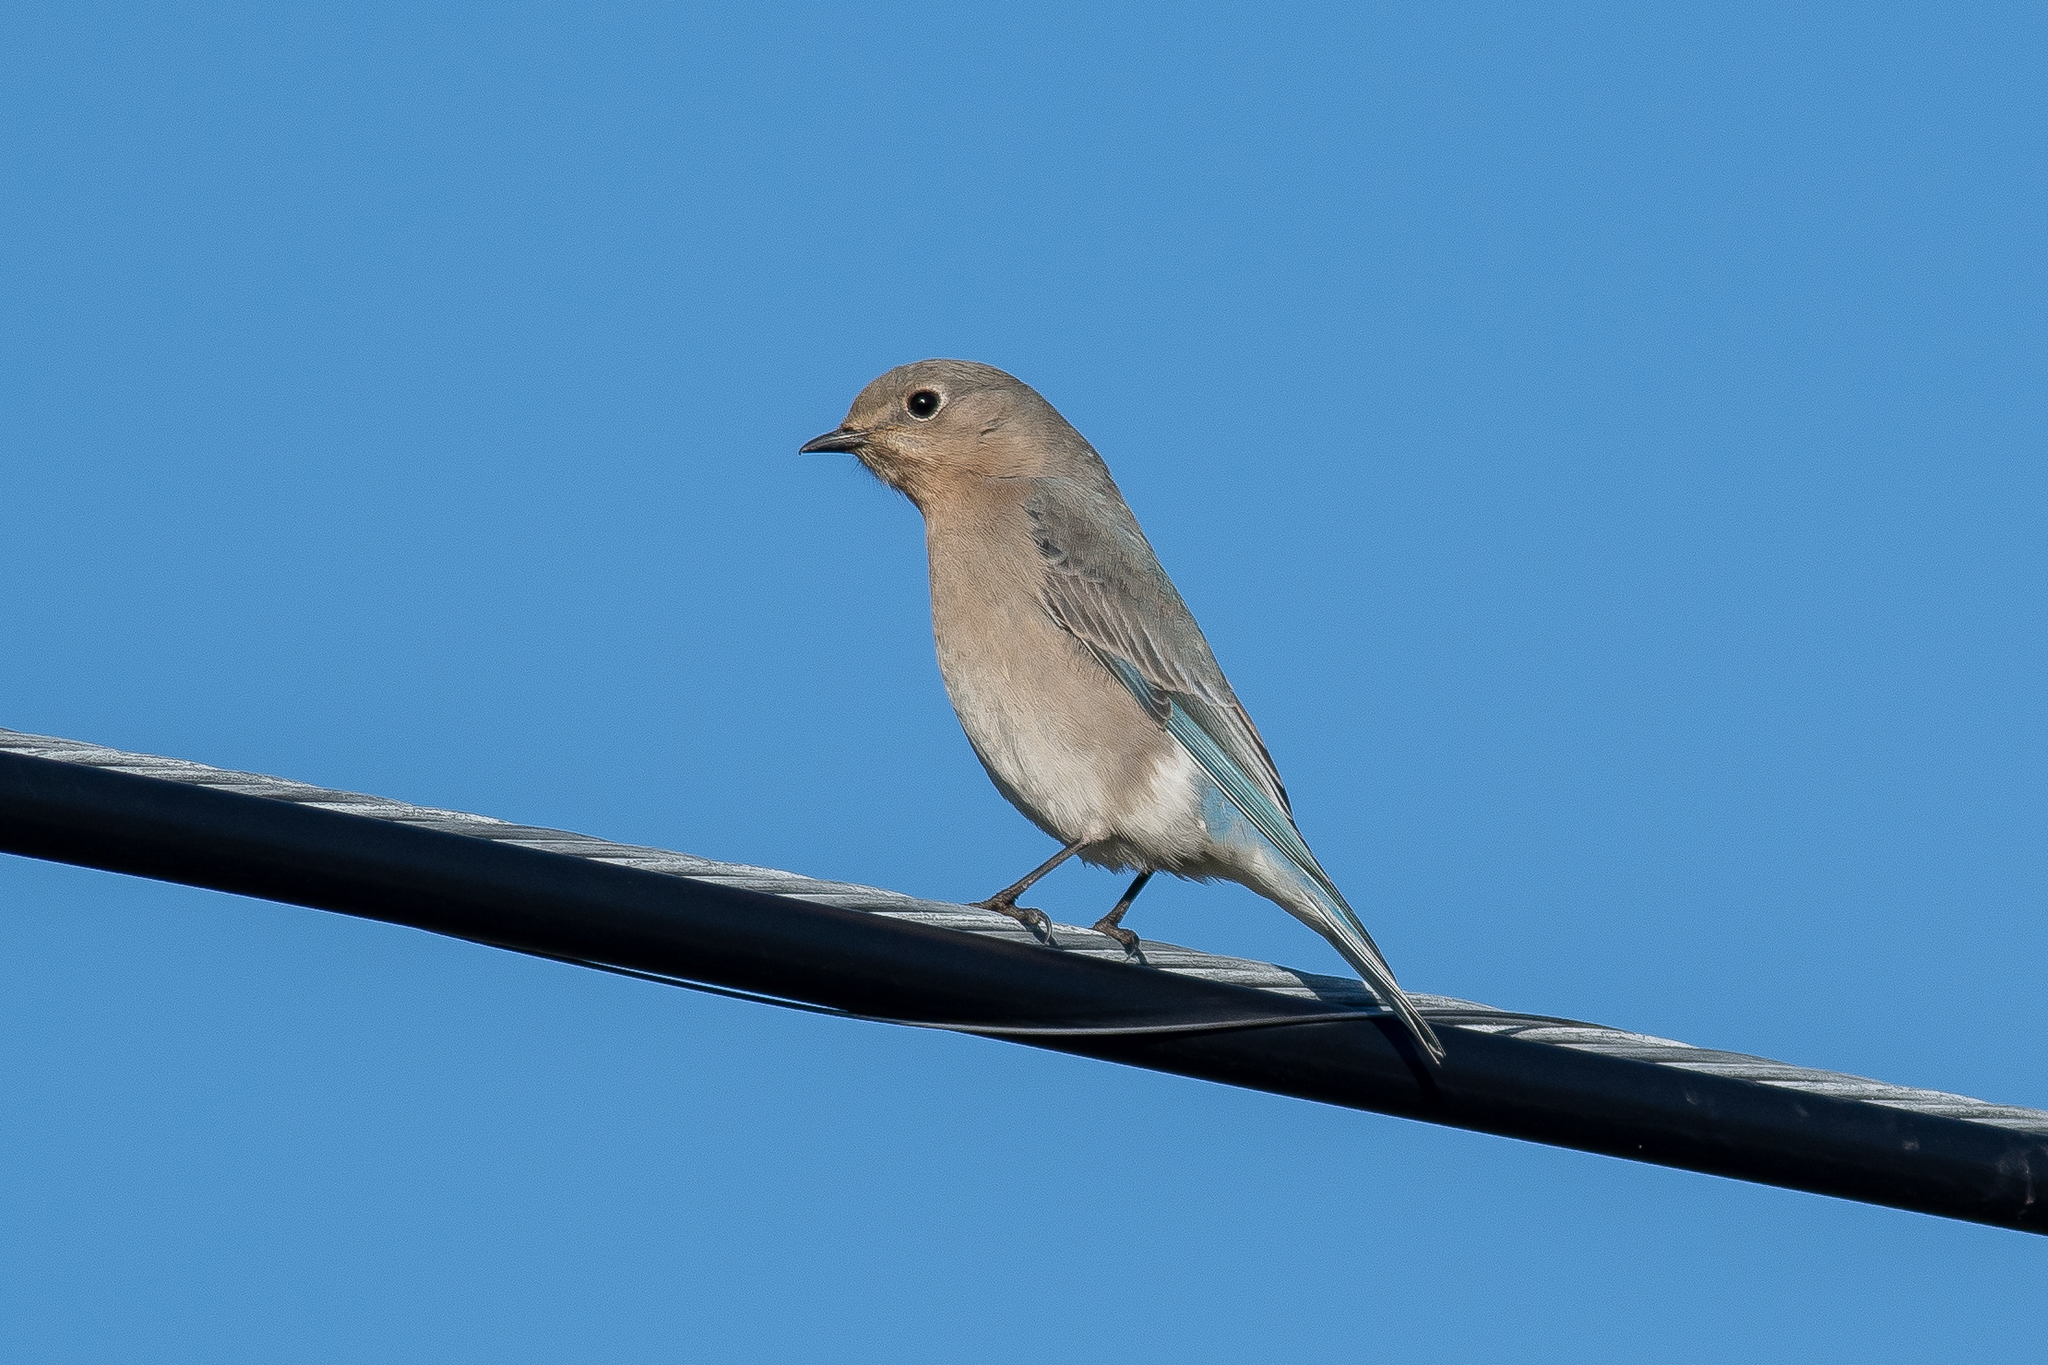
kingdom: Animalia
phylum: Chordata
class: Aves
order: Passeriformes
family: Turdidae
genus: Sialia
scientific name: Sialia currucoides
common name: Mountain bluebird
